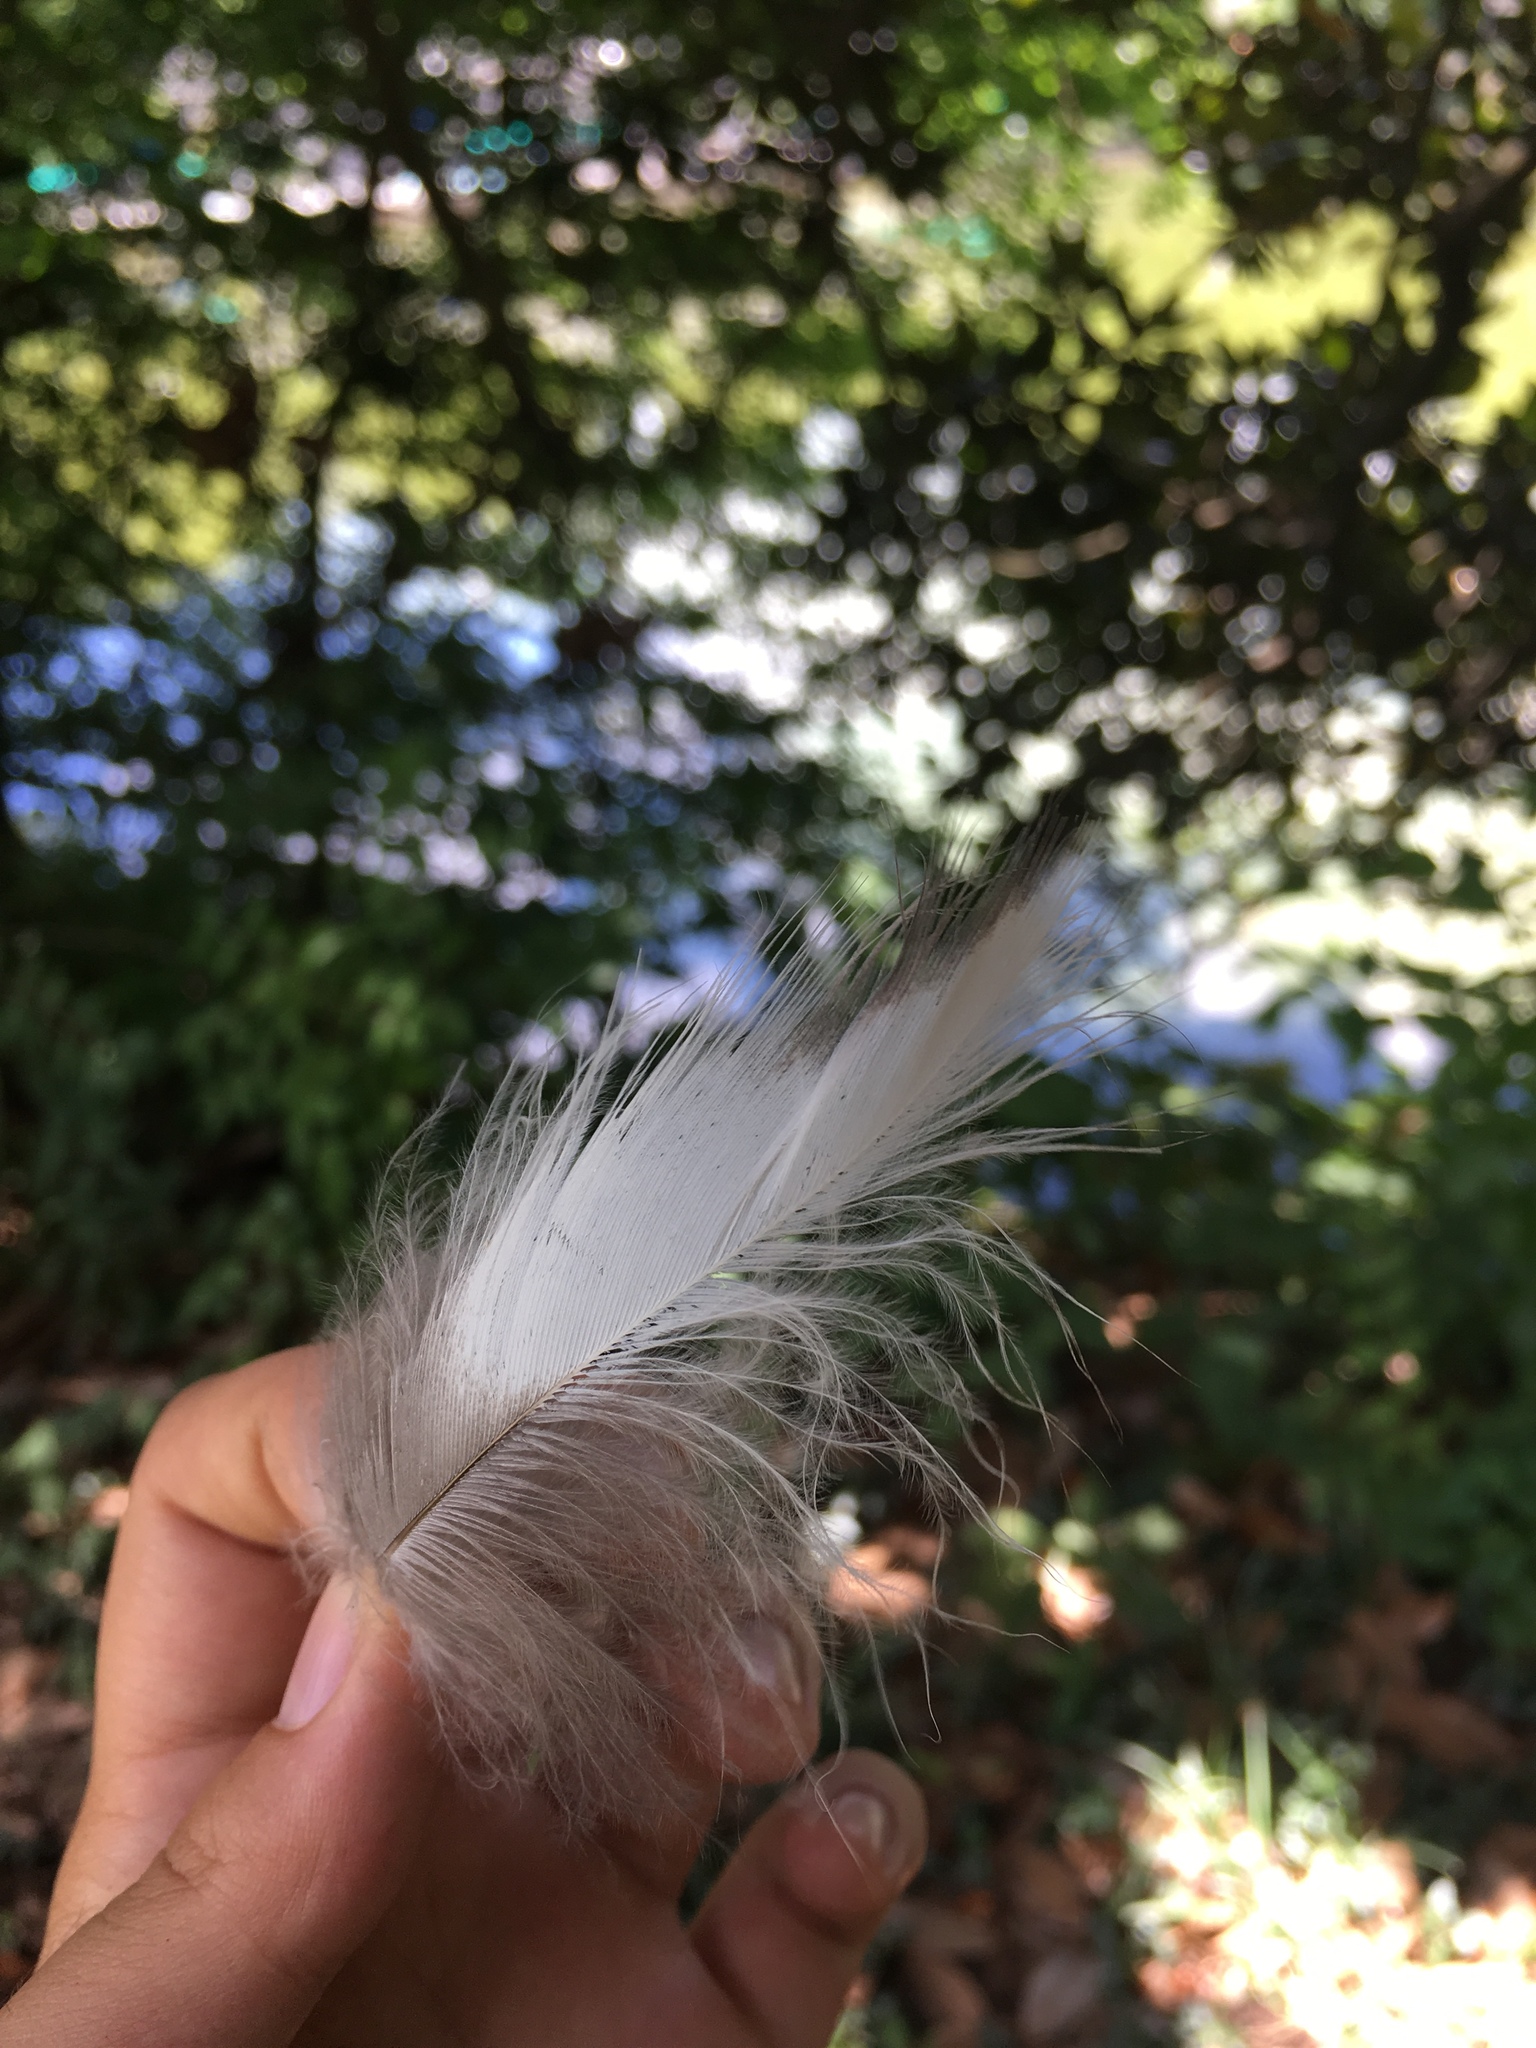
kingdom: Animalia
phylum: Chordata
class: Aves
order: Pelecaniformes
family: Ardeidae
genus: Ardea
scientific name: Ardea herodias
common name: Great blue heron
